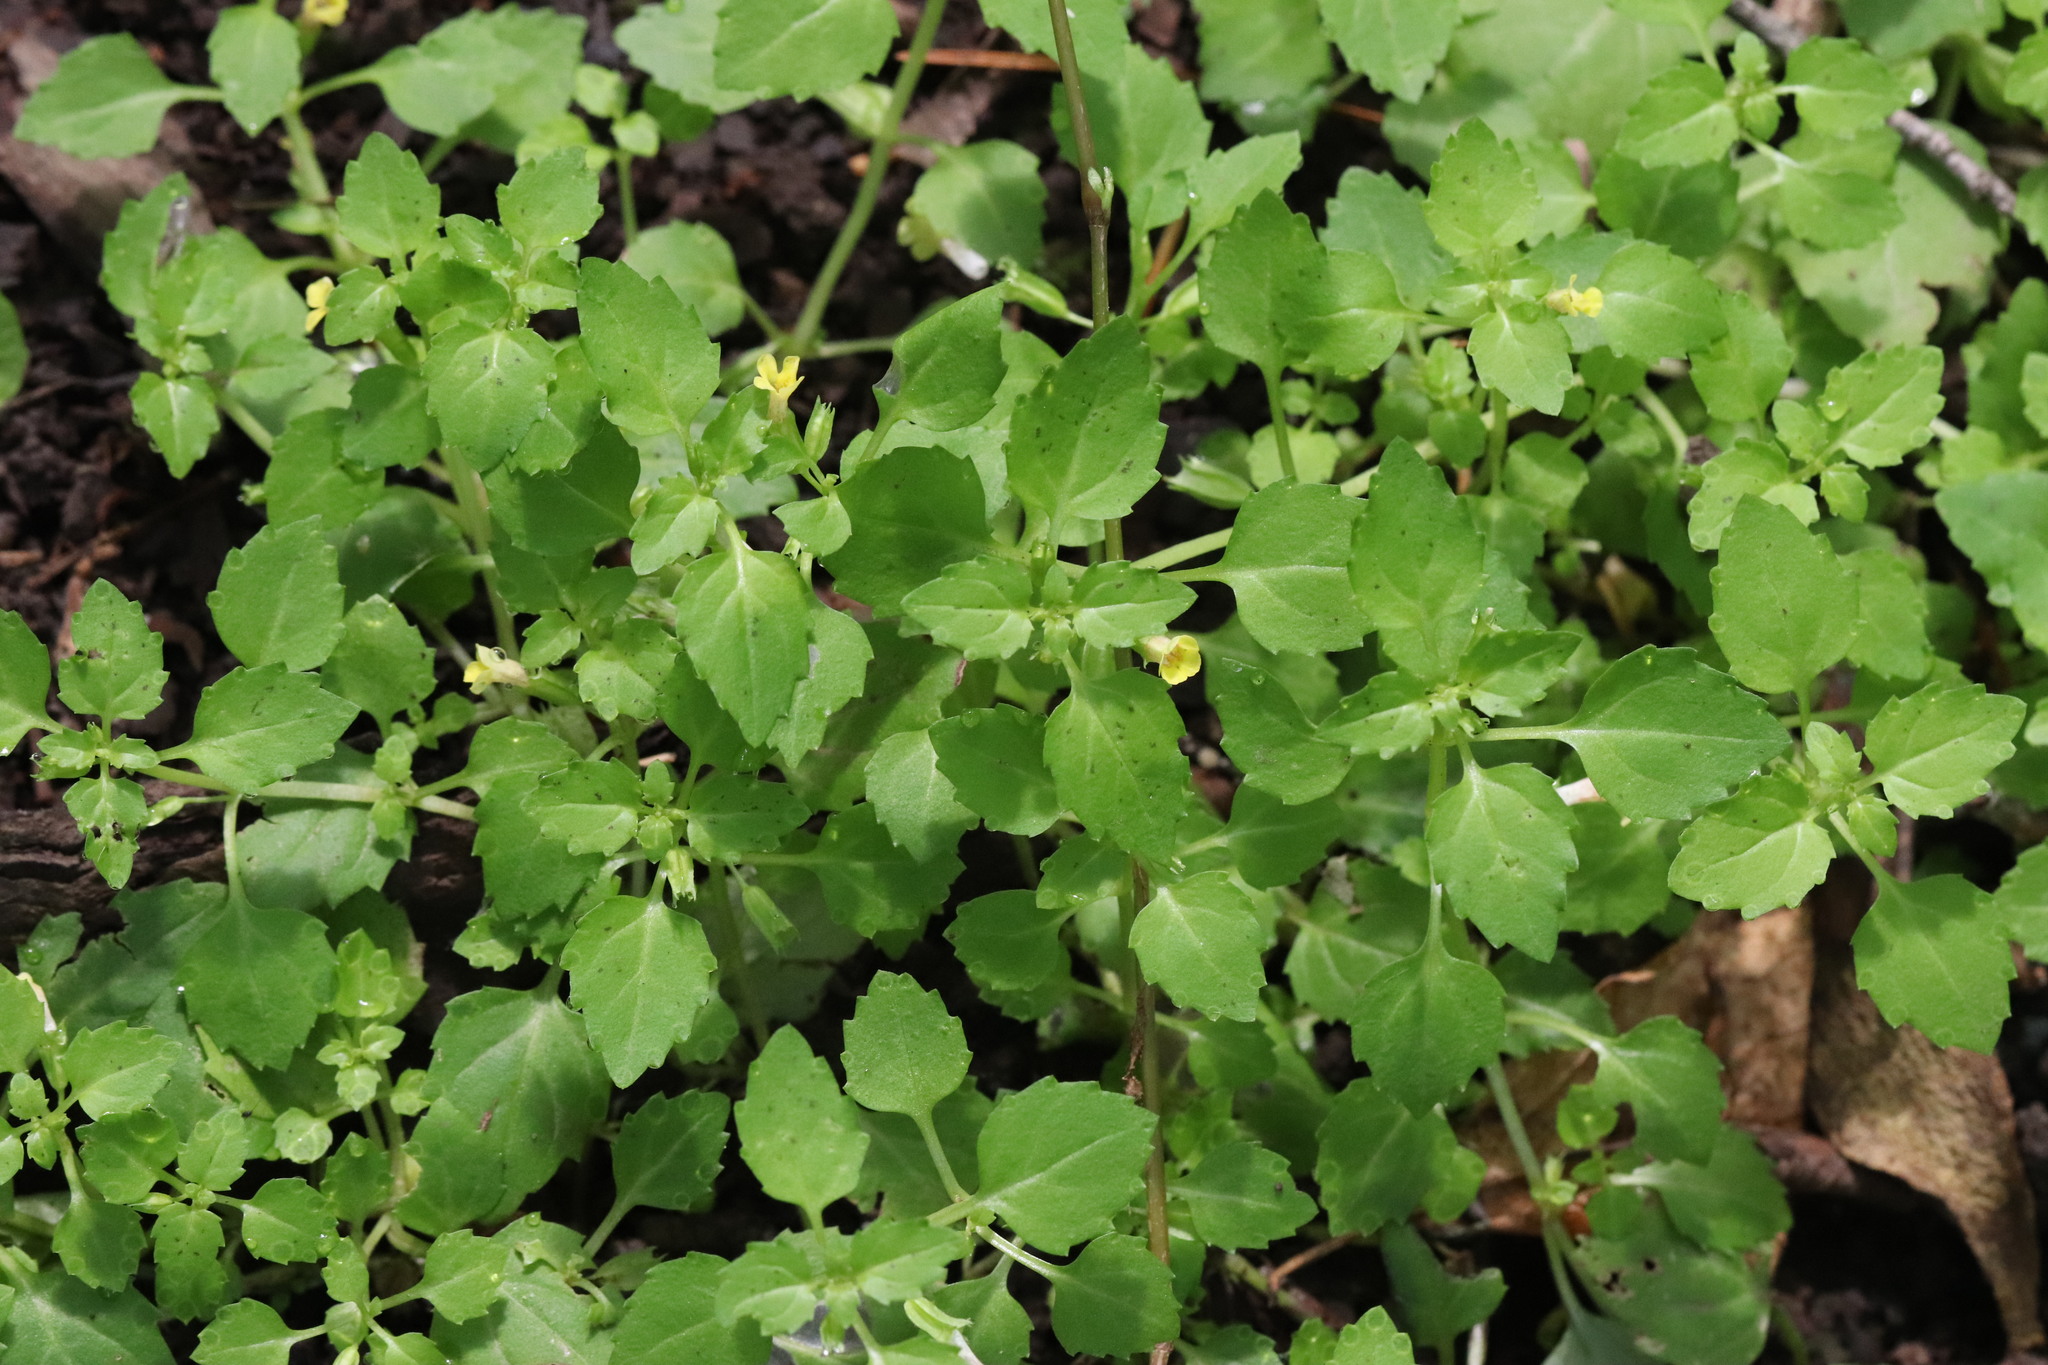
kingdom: Plantae
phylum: Tracheophyta
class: Magnoliopsida
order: Lamiales
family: Phrymaceae
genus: Erythranthe
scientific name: Erythranthe tenella
